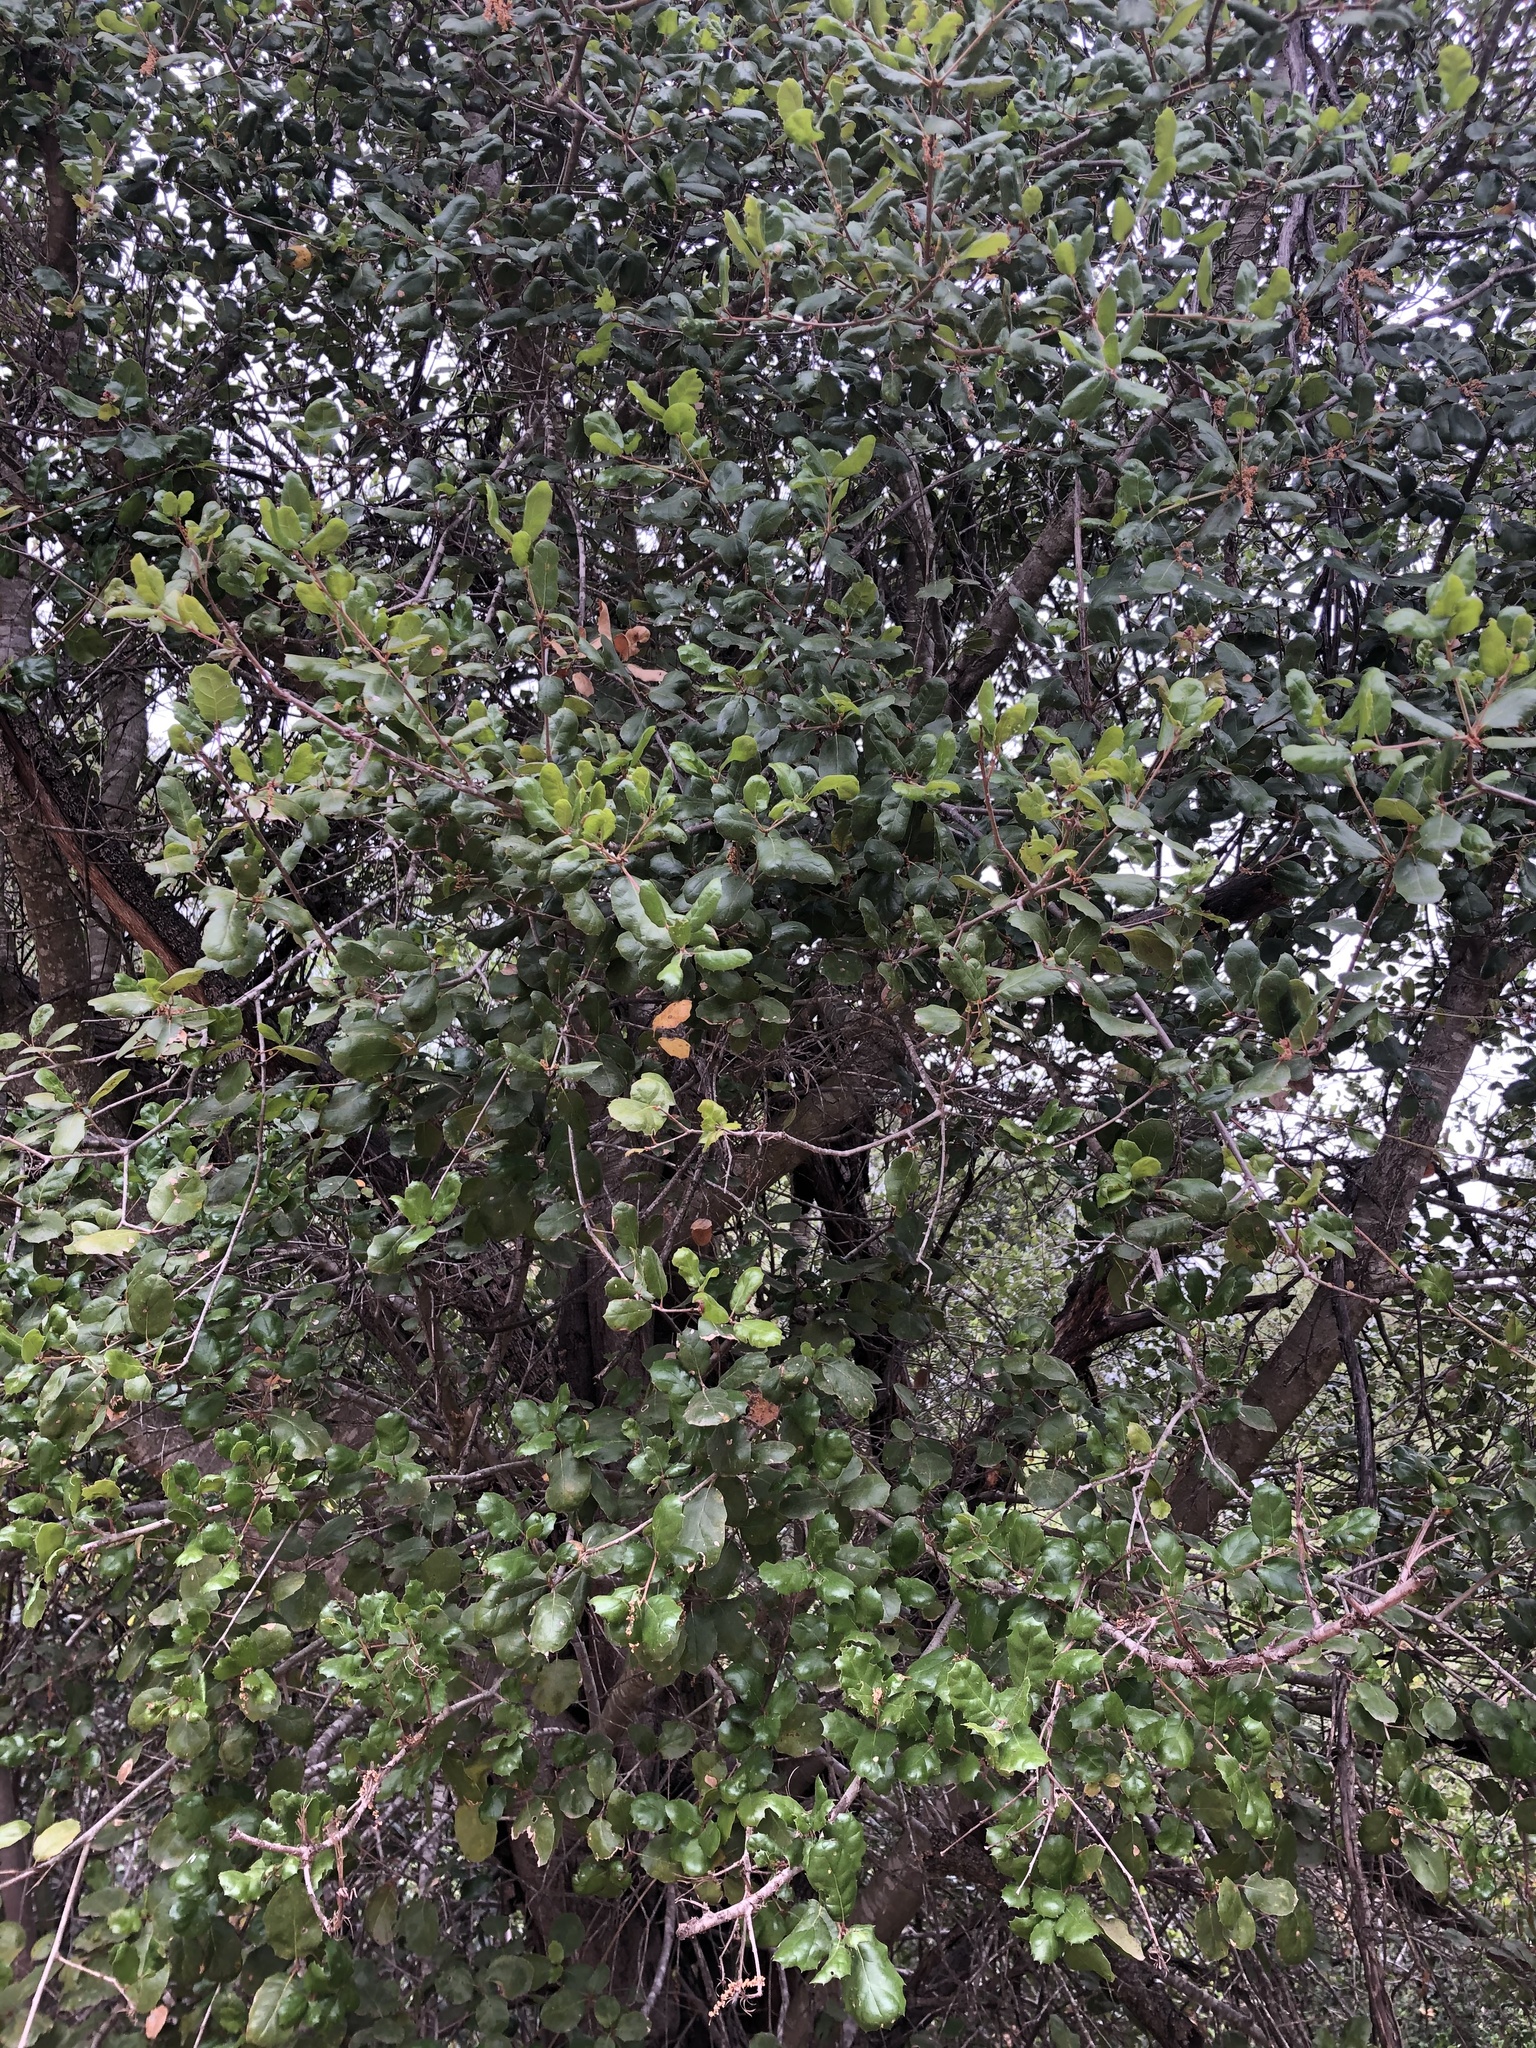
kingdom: Plantae
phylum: Tracheophyta
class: Magnoliopsida
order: Fagales
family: Fagaceae
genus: Quercus
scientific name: Quercus agrifolia
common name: California live oak
